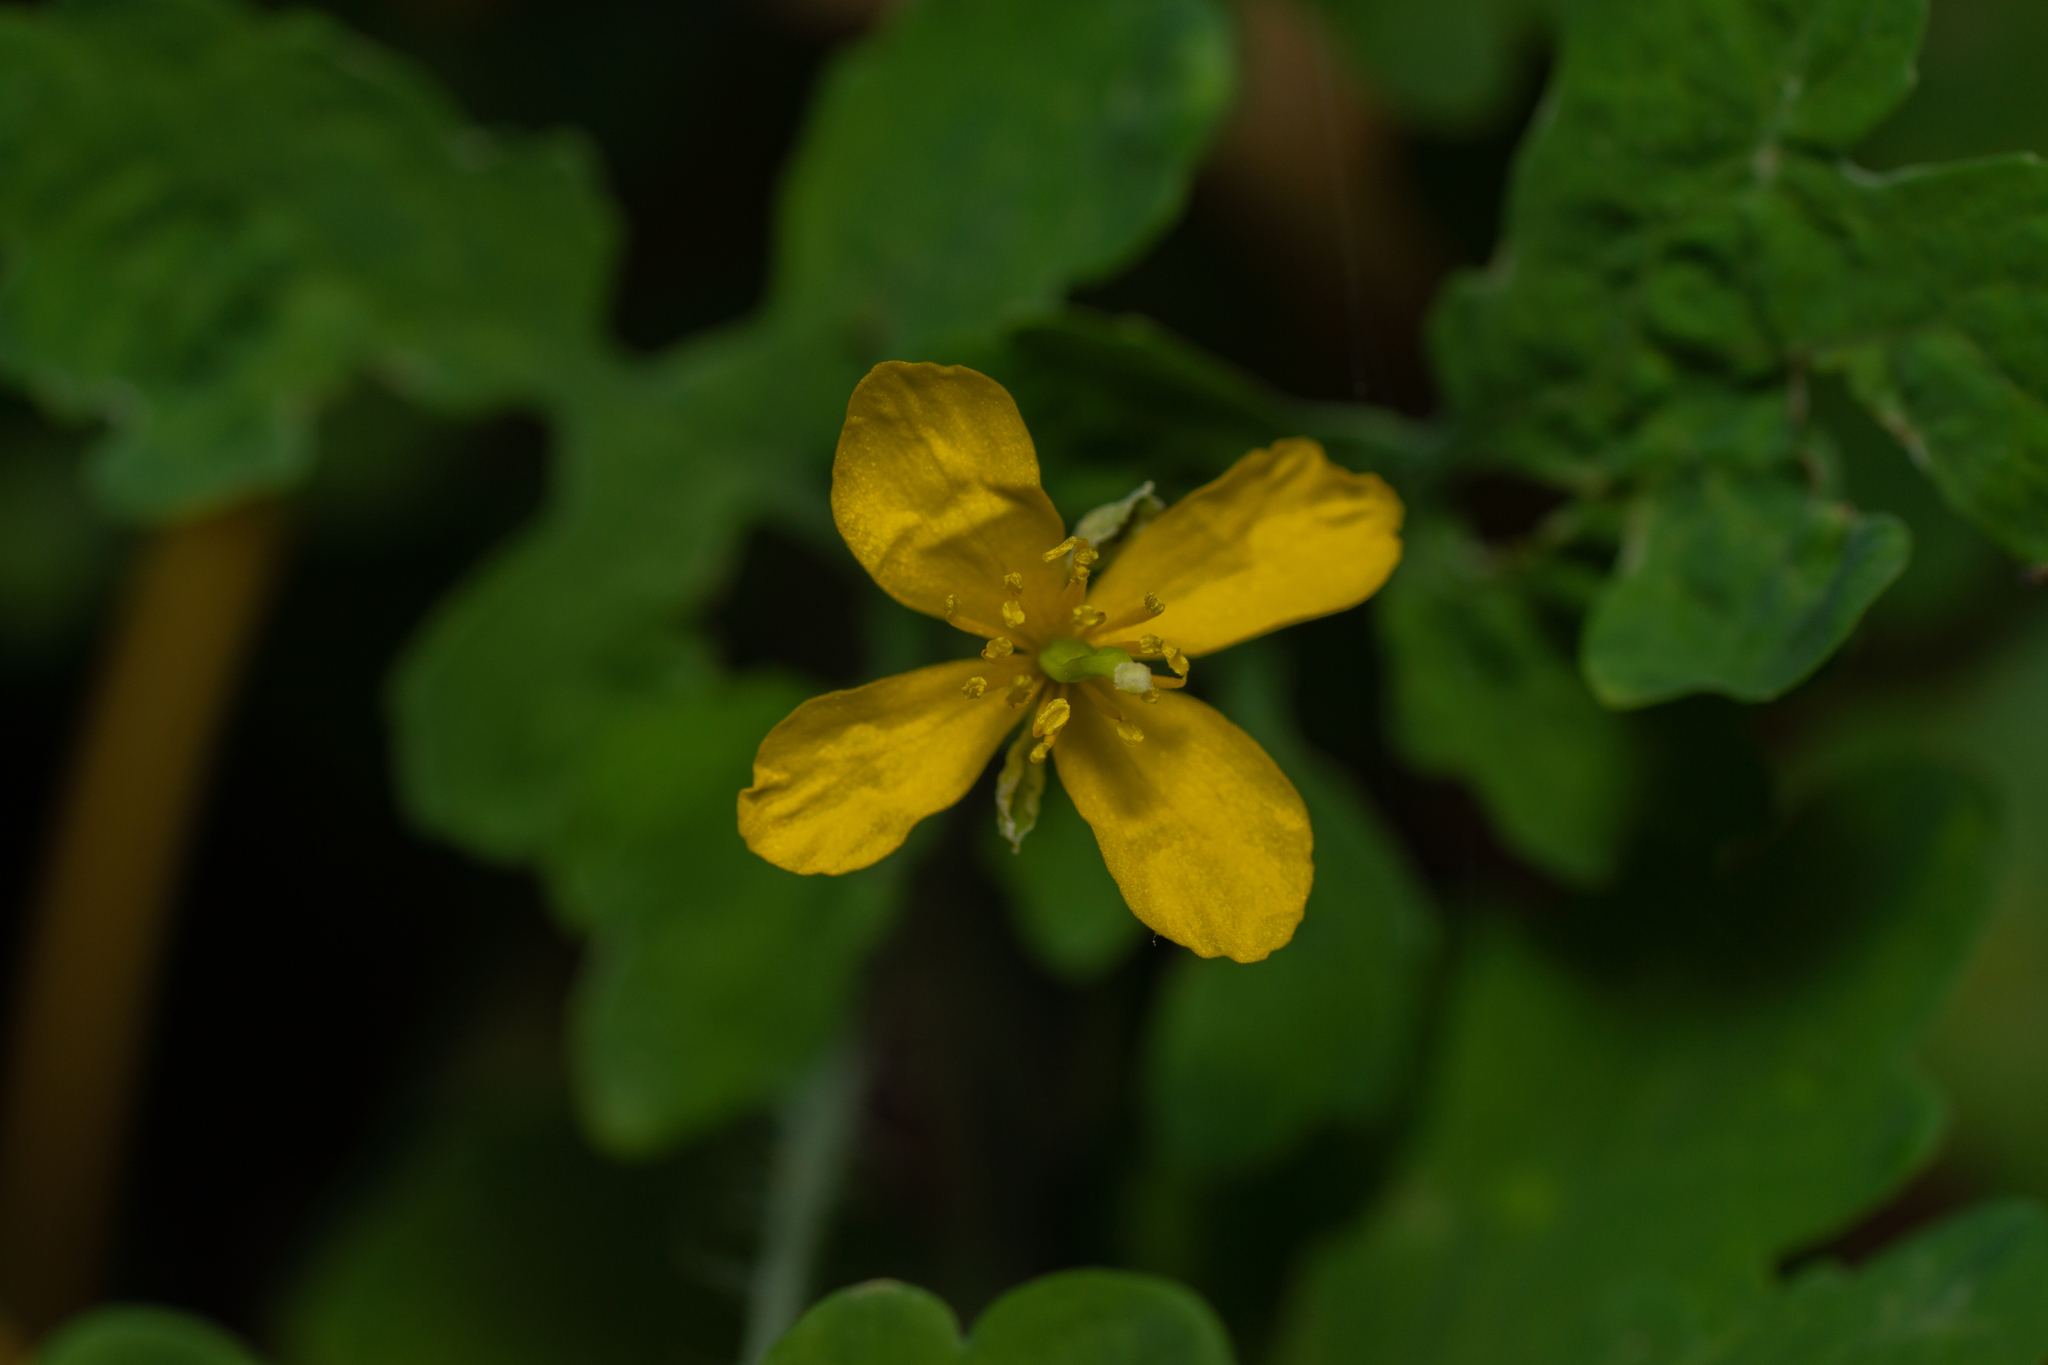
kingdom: Plantae
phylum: Tracheophyta
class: Magnoliopsida
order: Ranunculales
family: Papaveraceae
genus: Chelidonium
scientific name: Chelidonium majus
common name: Greater celandine
